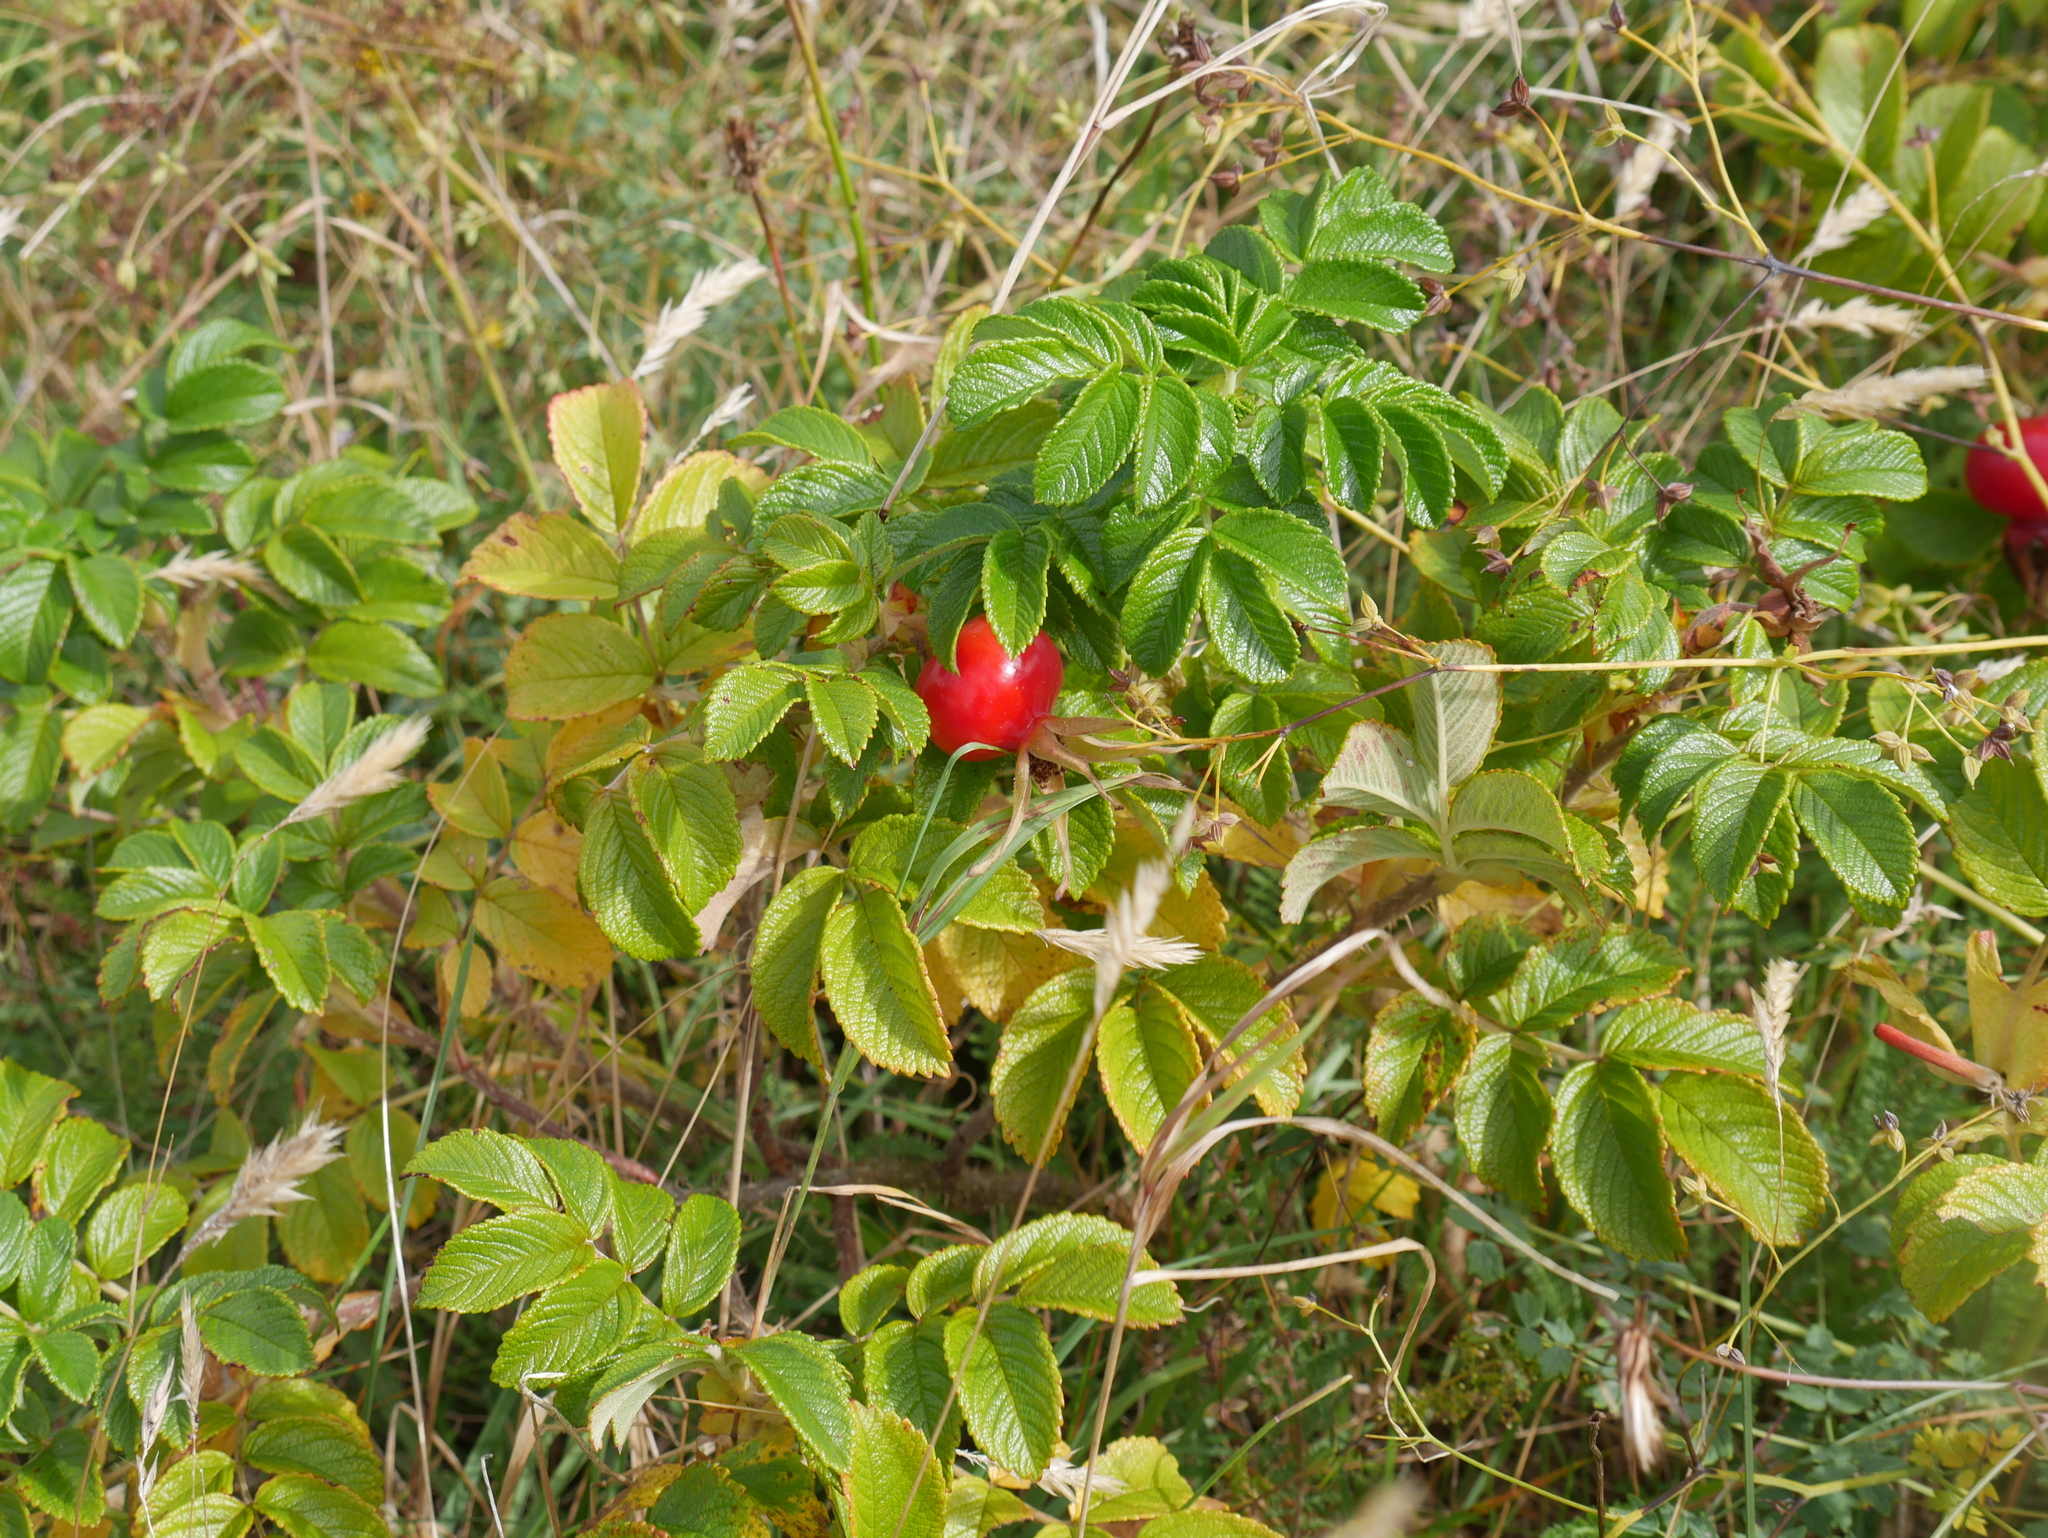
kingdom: Plantae
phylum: Tracheophyta
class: Magnoliopsida
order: Rosales
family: Rosaceae
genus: Rosa
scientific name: Rosa rugosa
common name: Japanese rose
